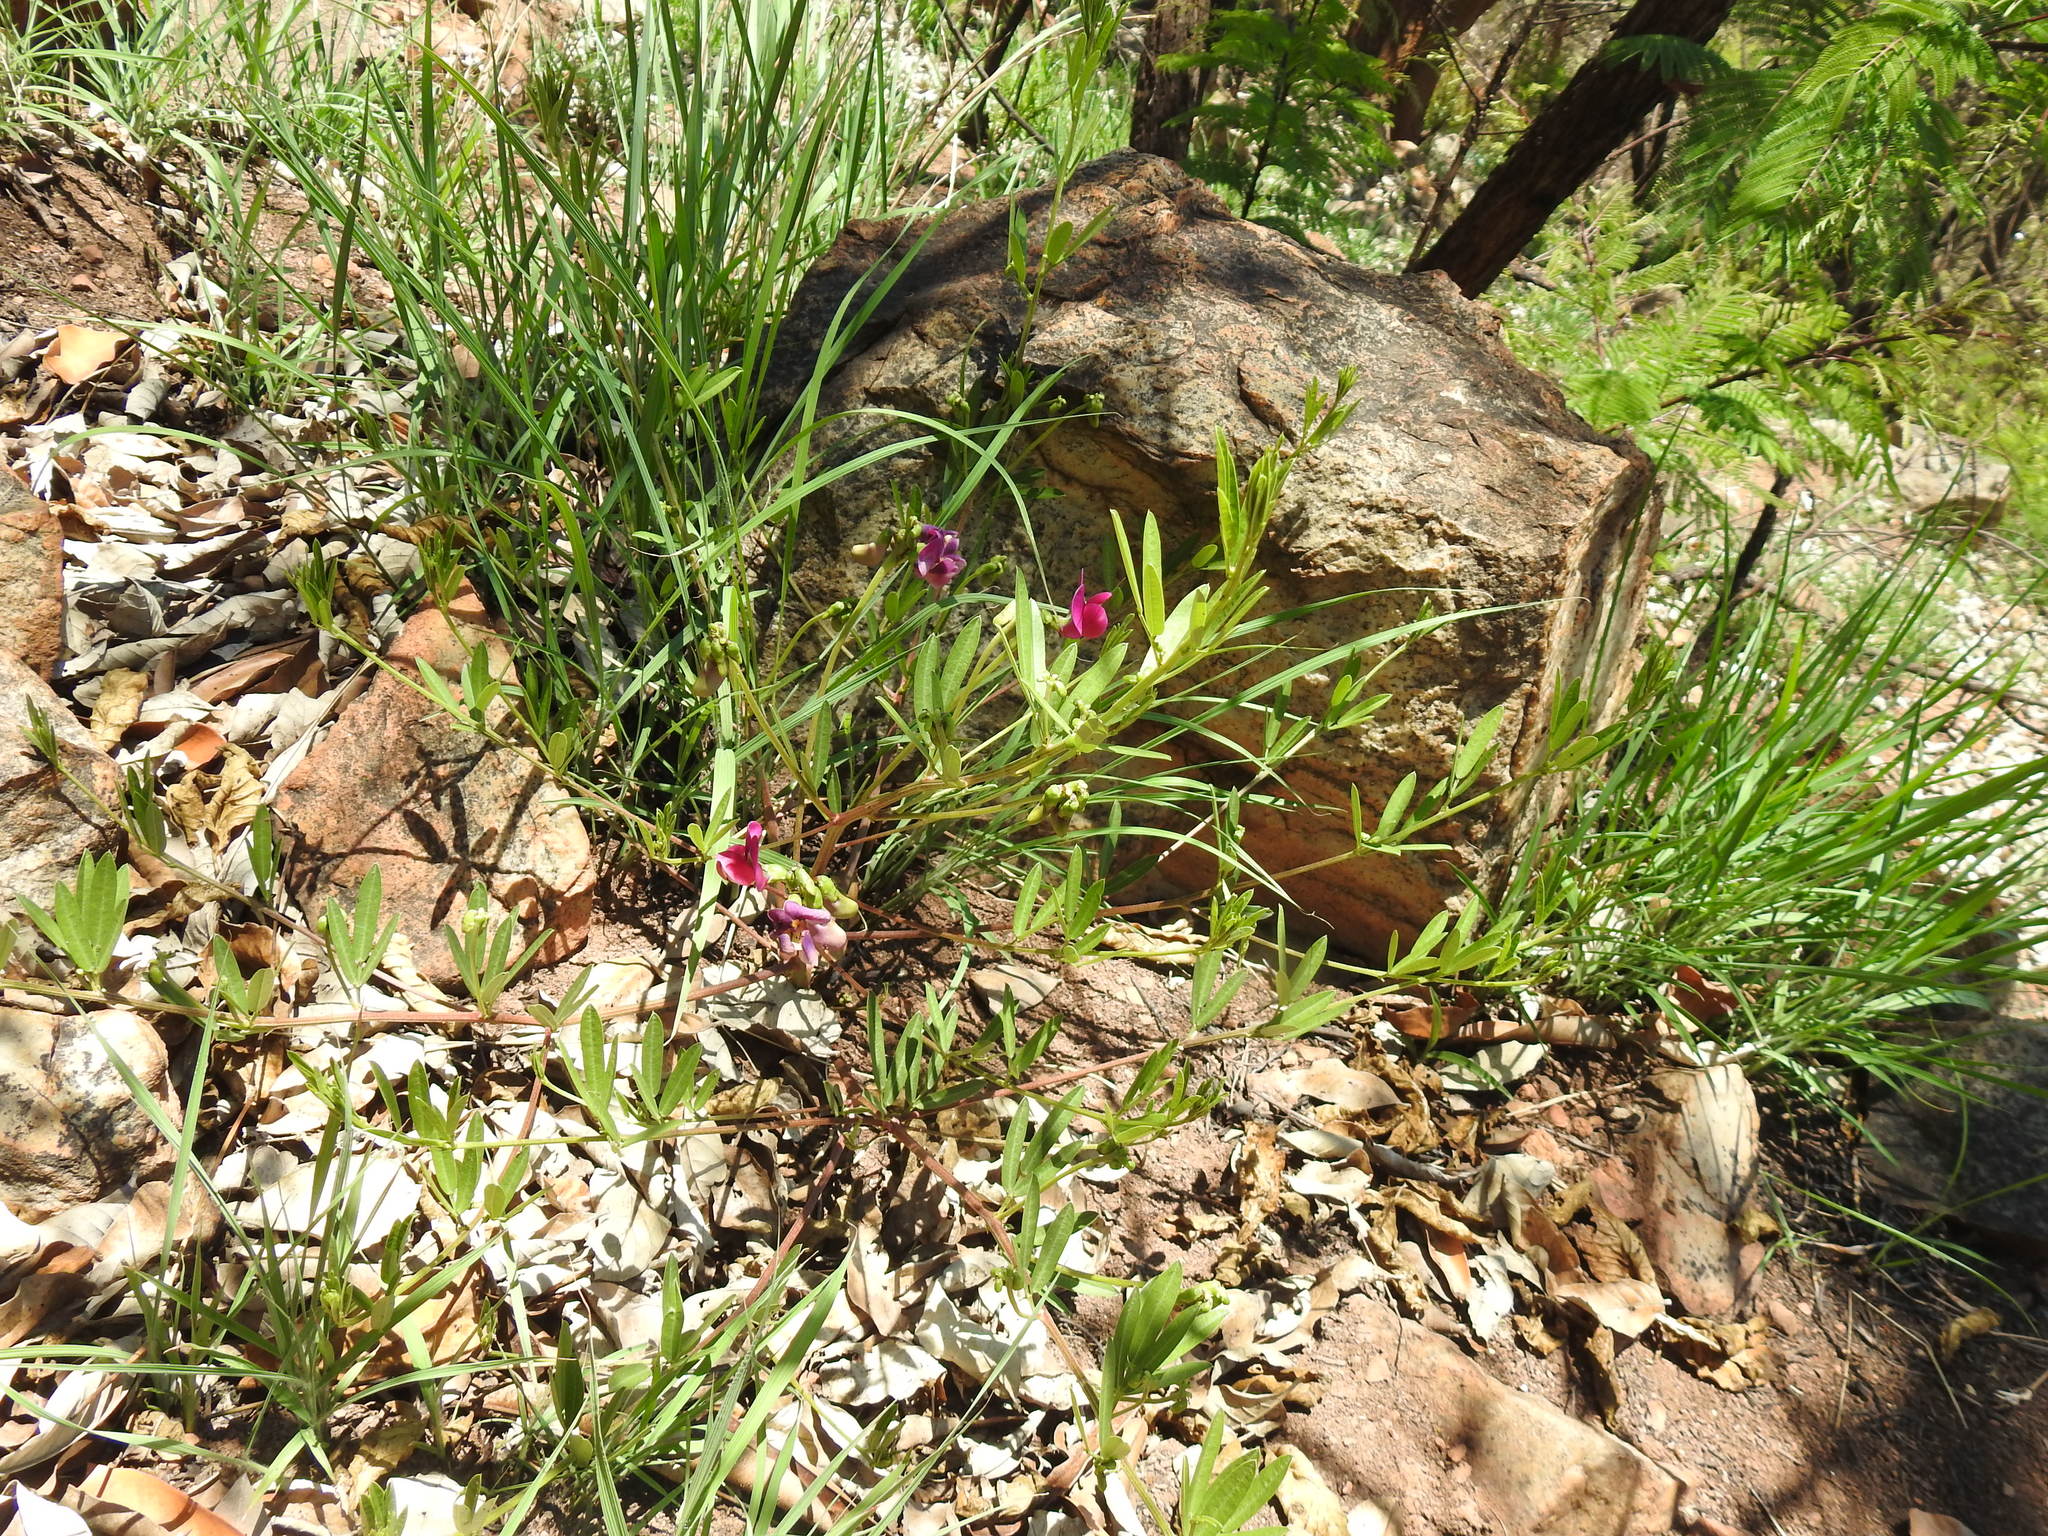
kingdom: Plantae
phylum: Tracheophyta
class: Magnoliopsida
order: Fabales
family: Fabaceae
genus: Sphenostylis
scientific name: Sphenostylis angustifolia
